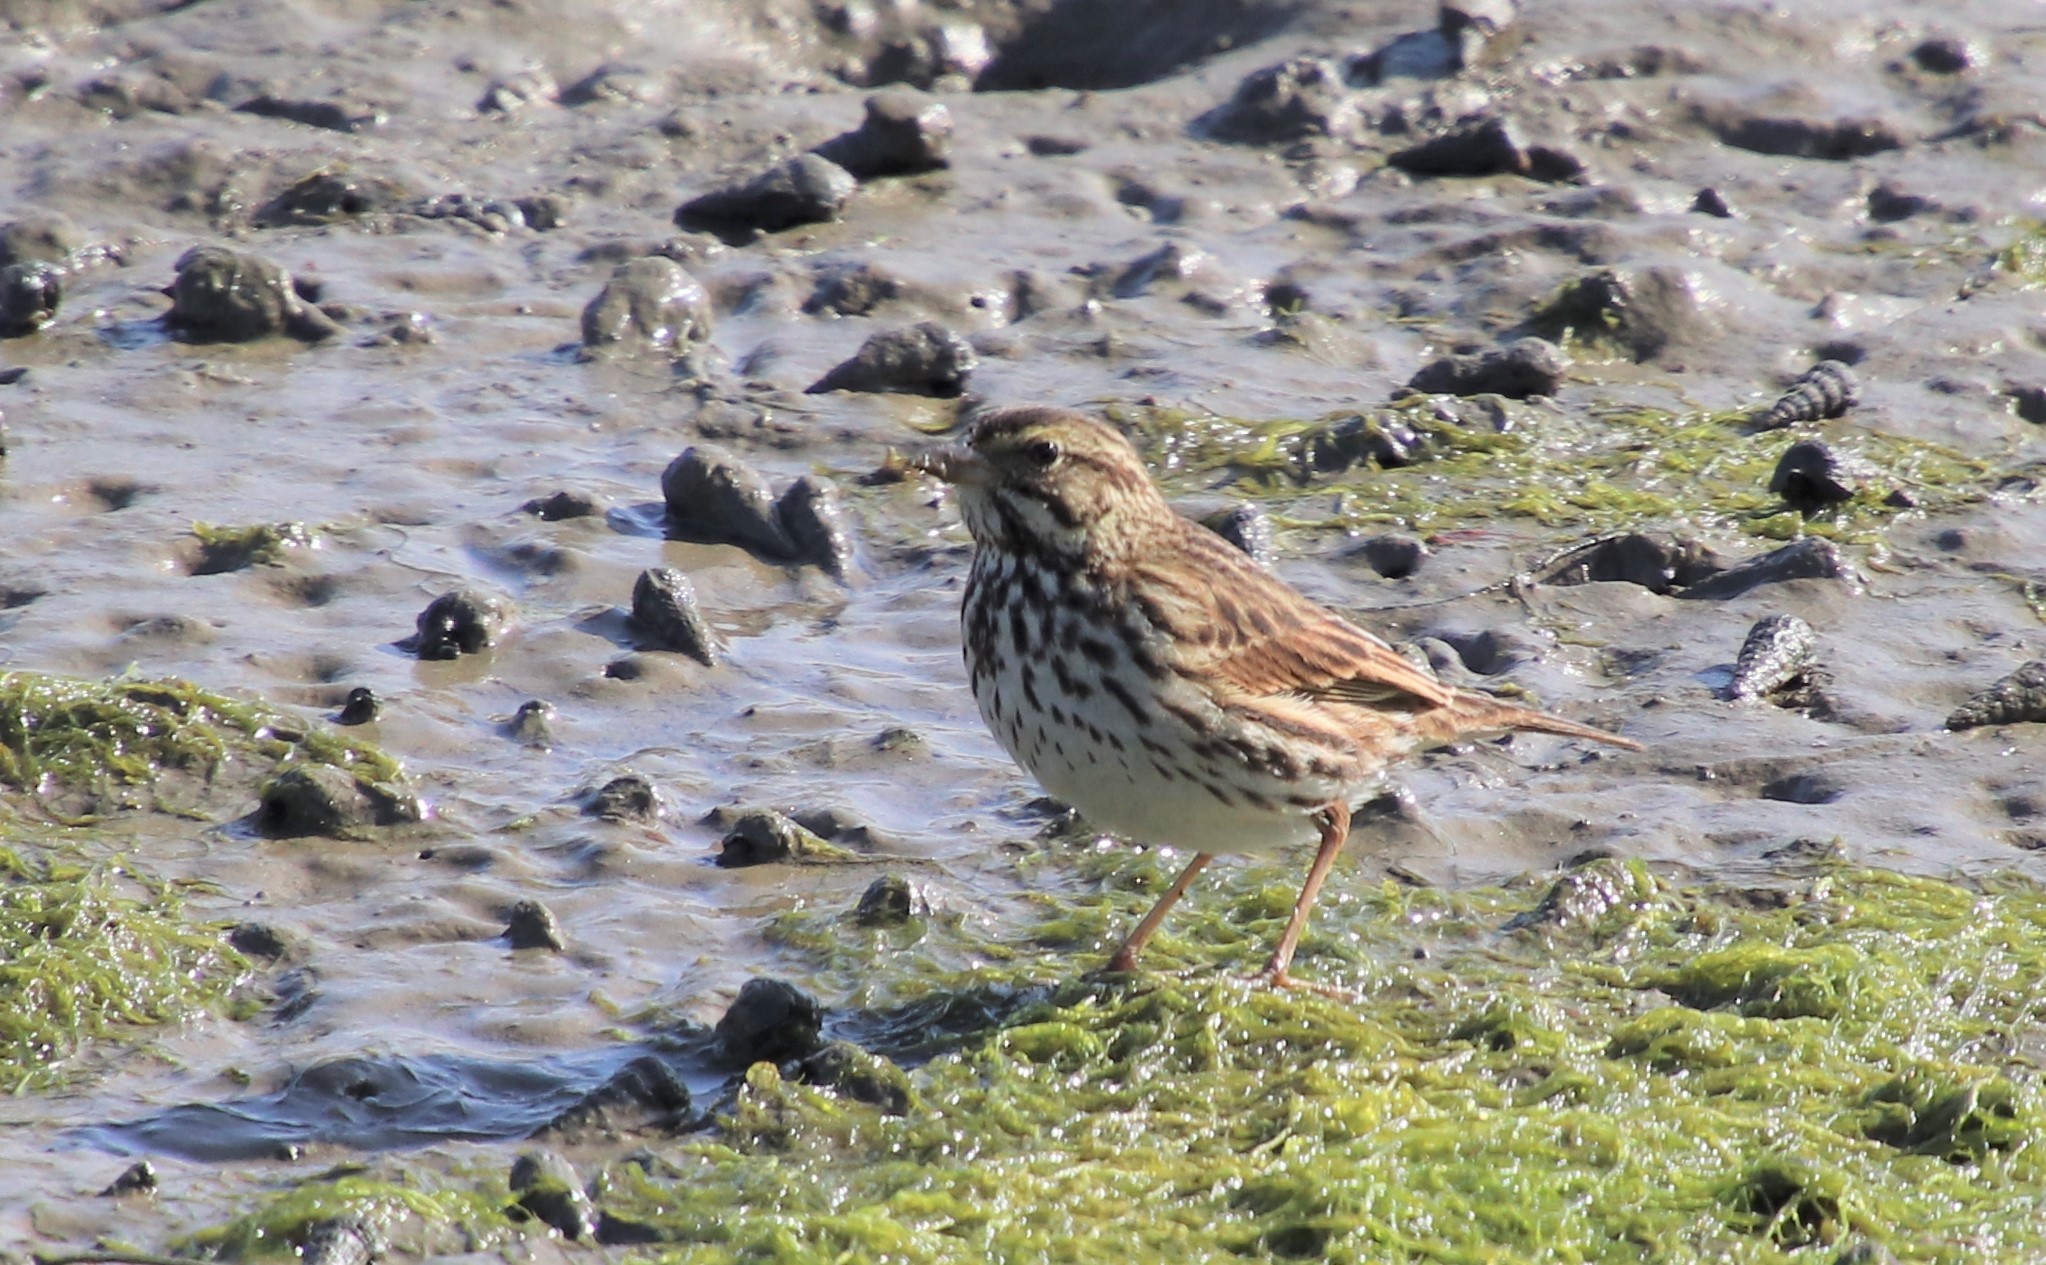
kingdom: Animalia
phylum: Chordata
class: Aves
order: Passeriformes
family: Passerellidae
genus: Passerculus
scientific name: Passerculus sandwichensis
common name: Savannah sparrow
